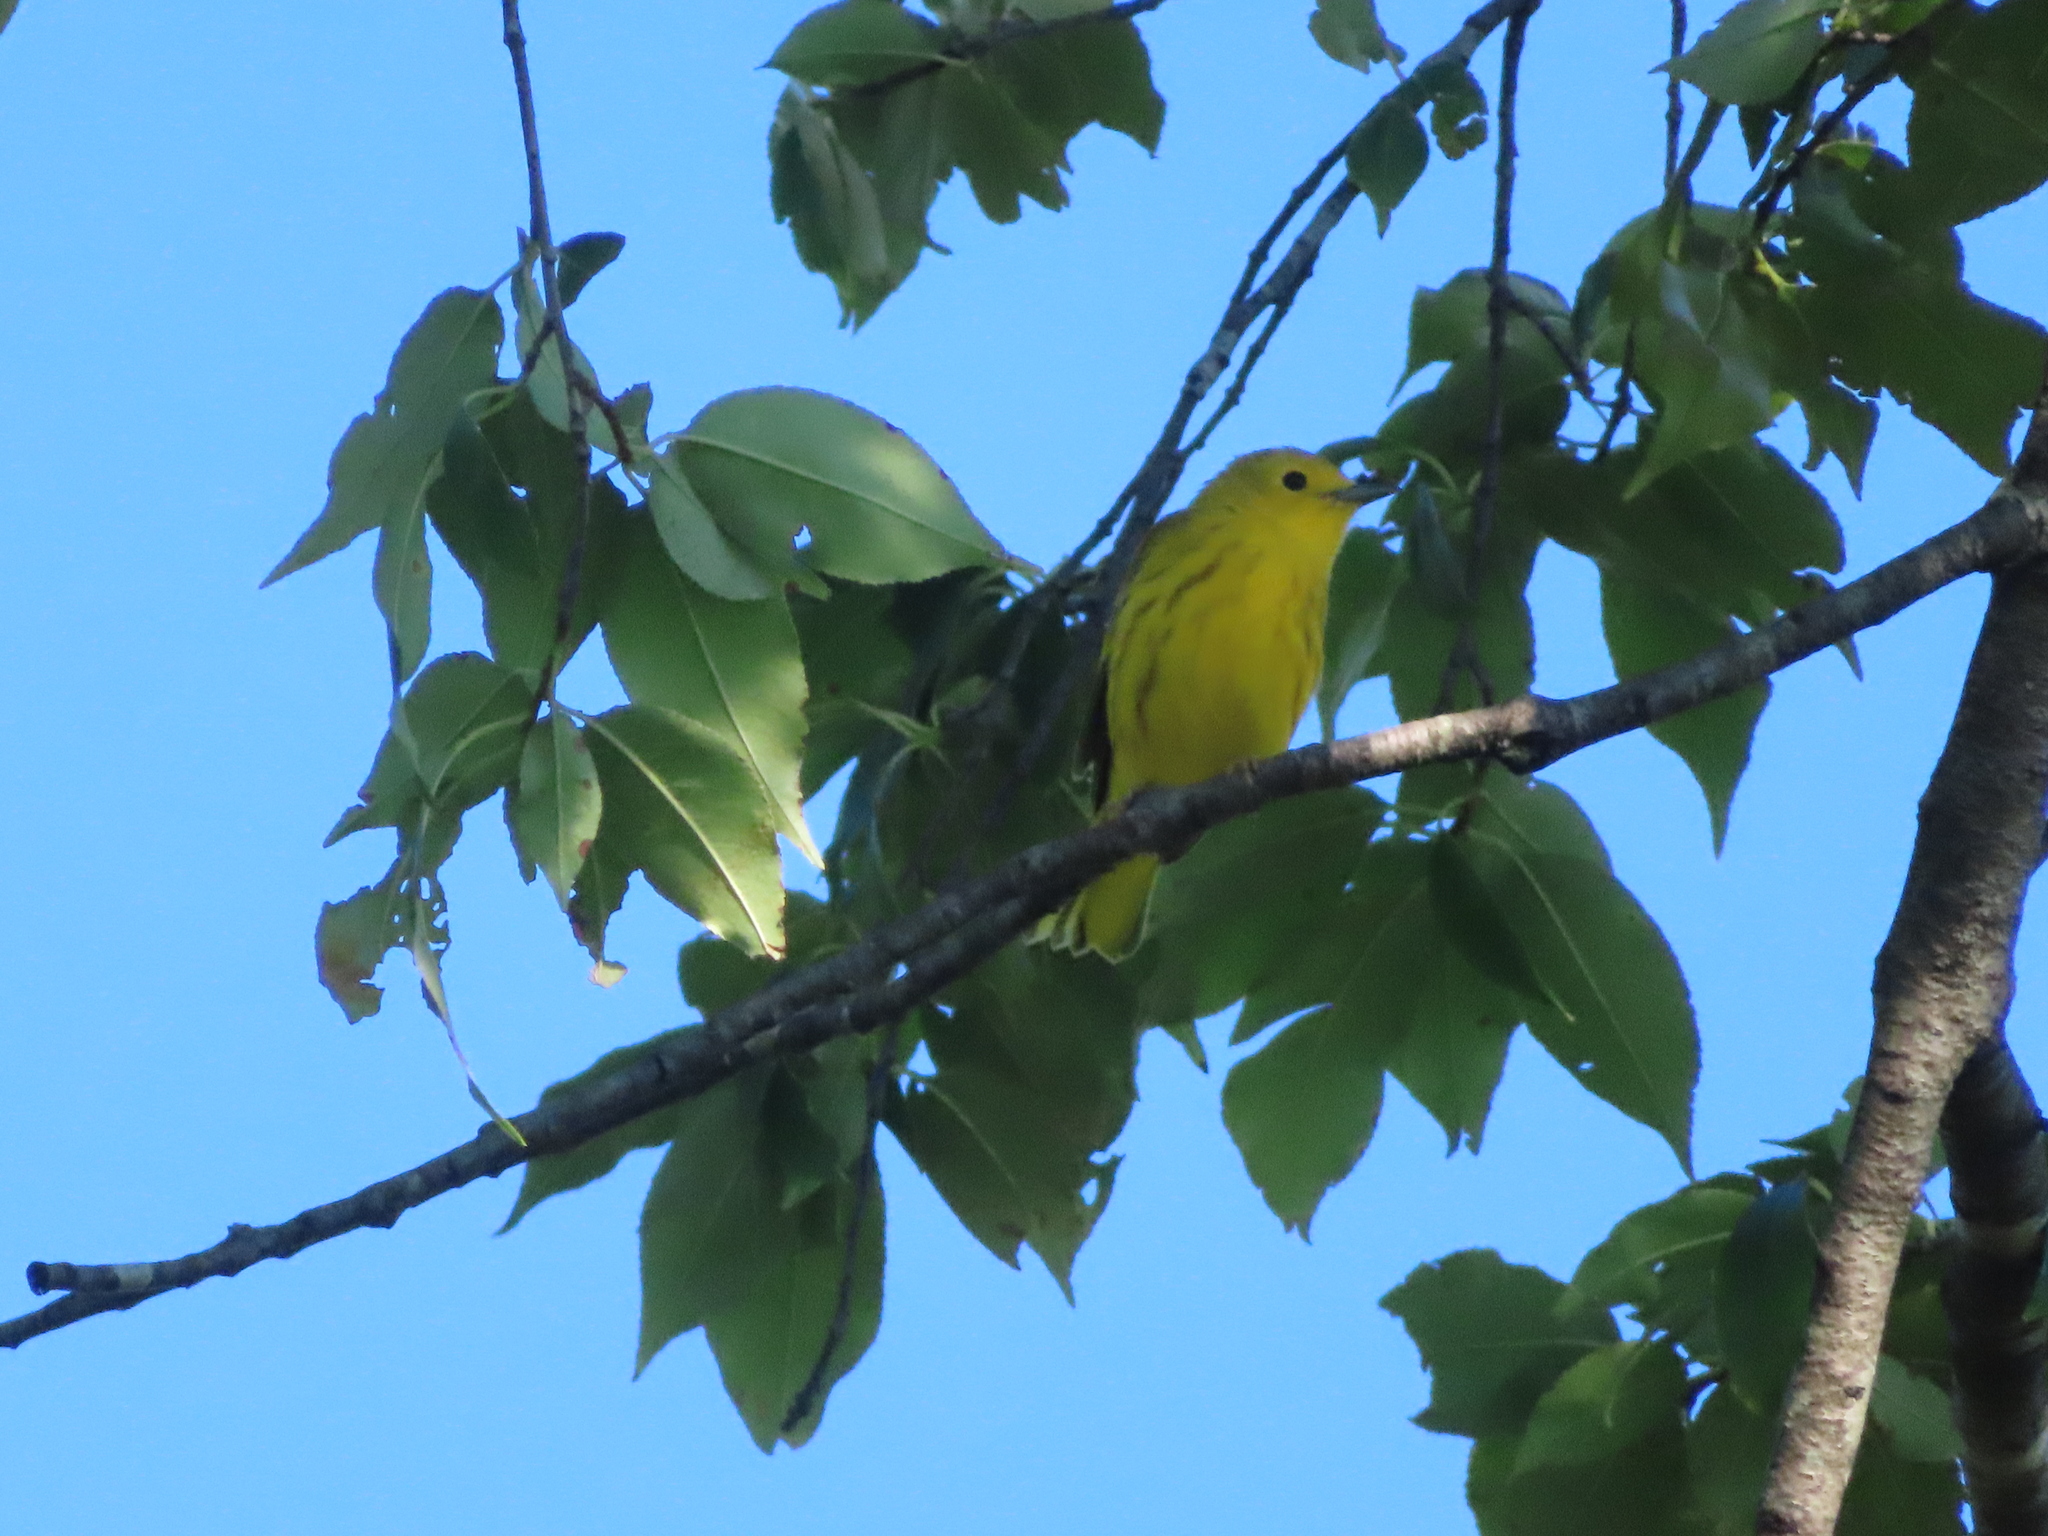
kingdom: Animalia
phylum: Chordata
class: Aves
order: Passeriformes
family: Parulidae
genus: Setophaga
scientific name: Setophaga petechia
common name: Yellow warbler
